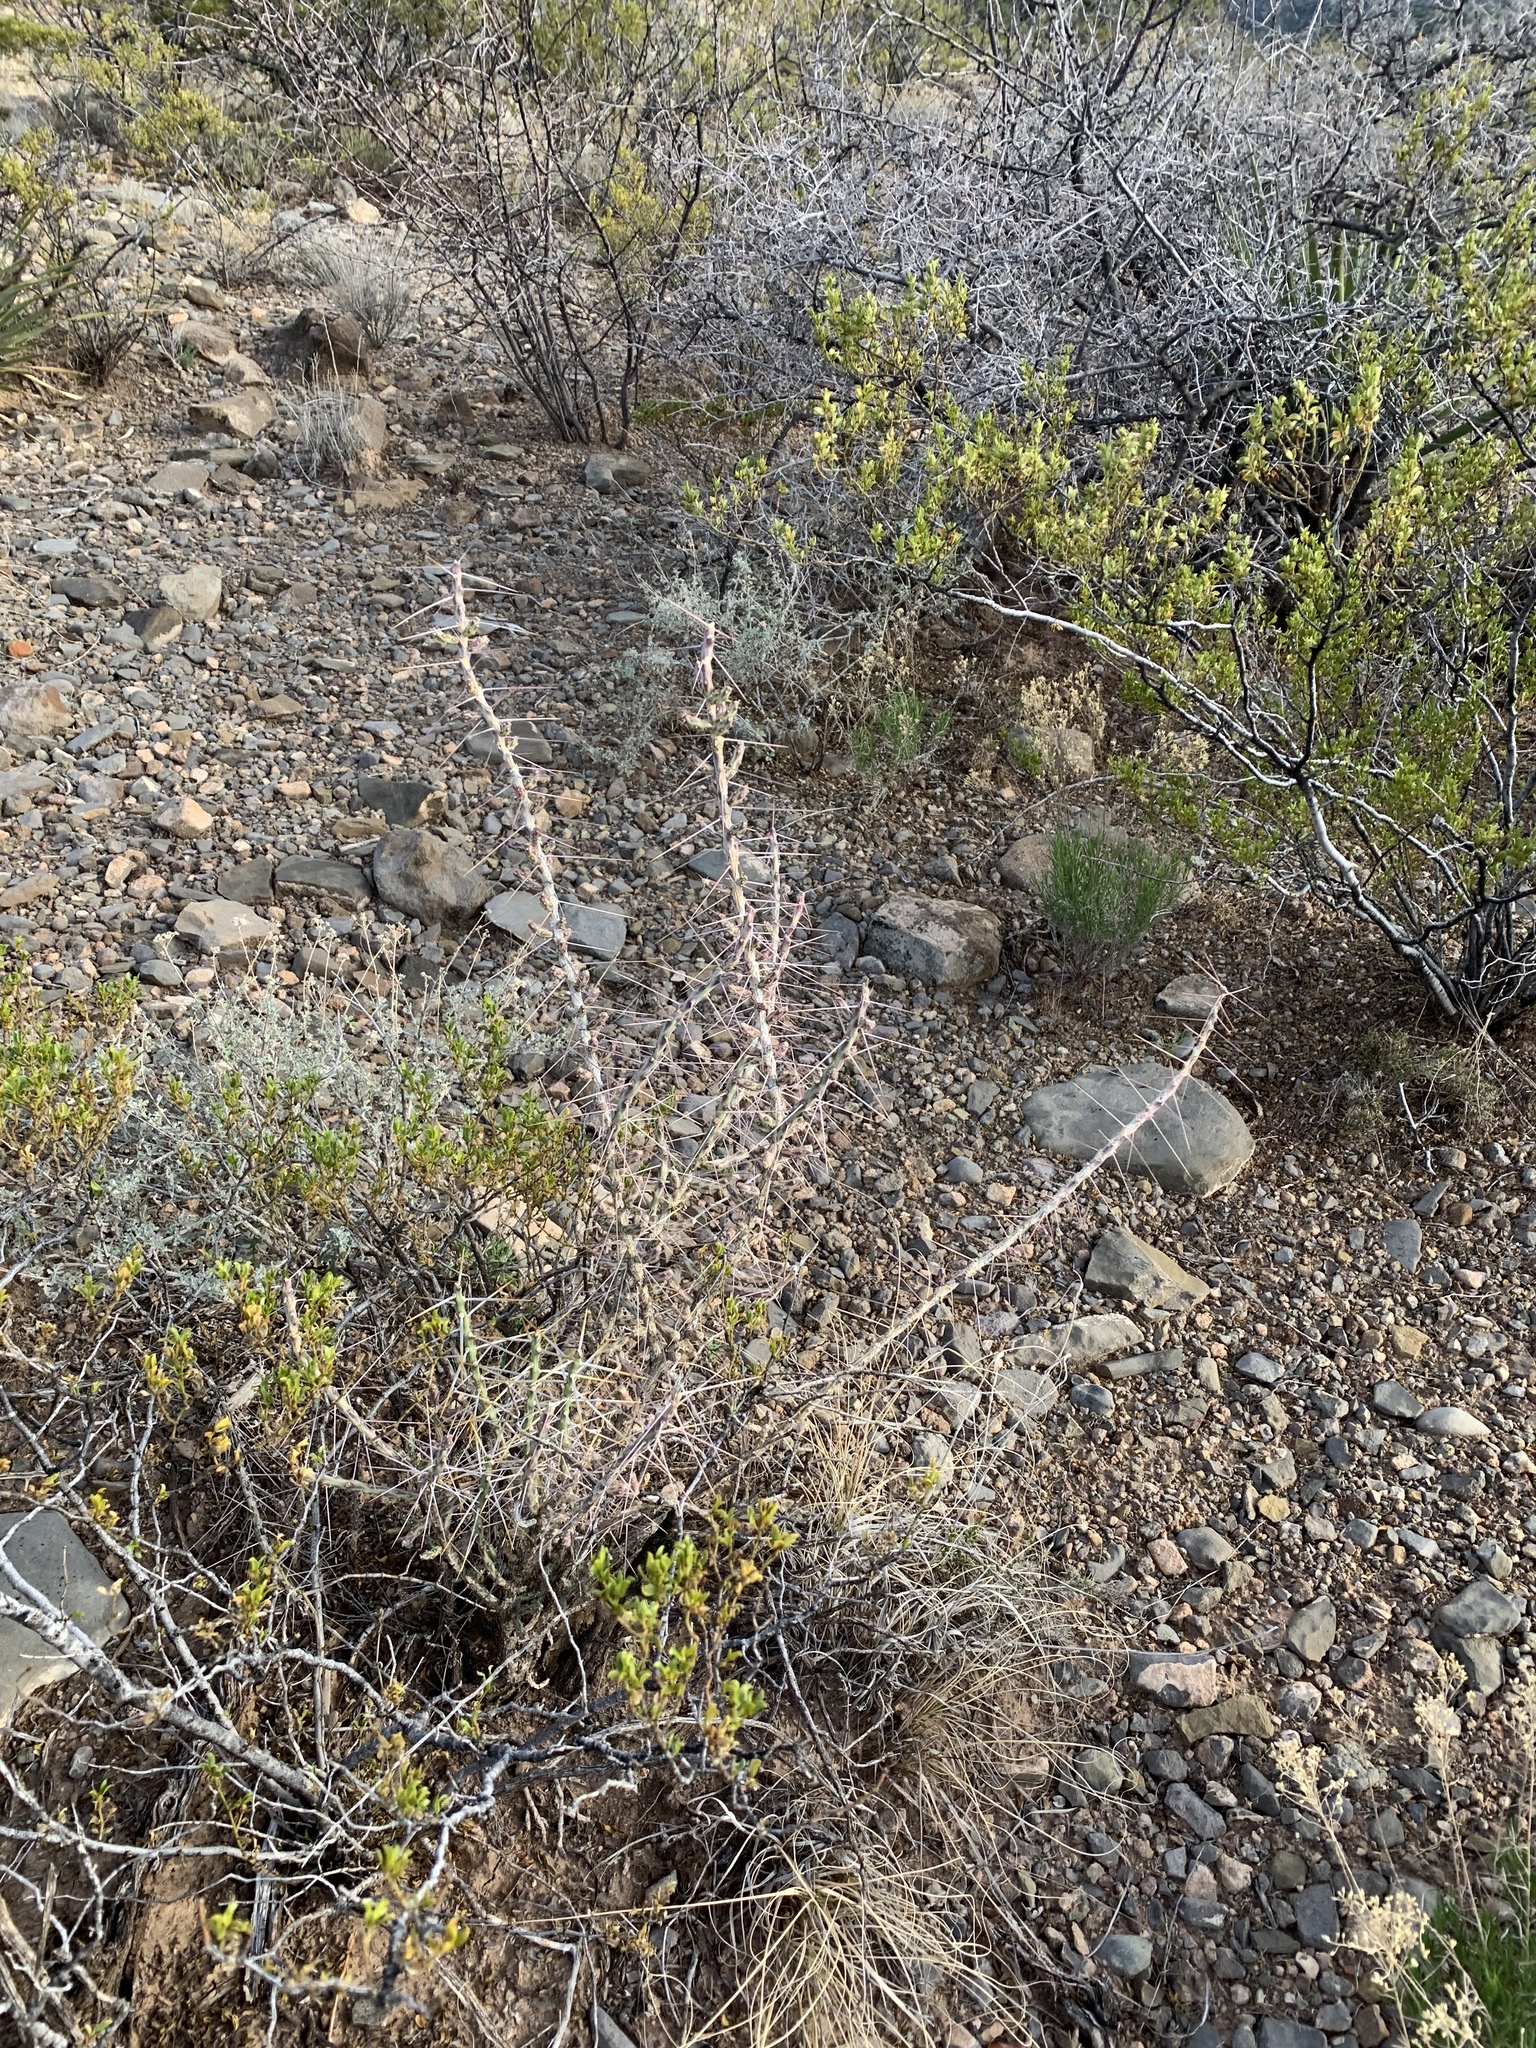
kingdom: Plantae
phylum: Tracheophyta
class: Magnoliopsida
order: Caryophyllales
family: Cactaceae
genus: Cylindropuntia
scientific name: Cylindropuntia leptocaulis
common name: Christmas cactus
